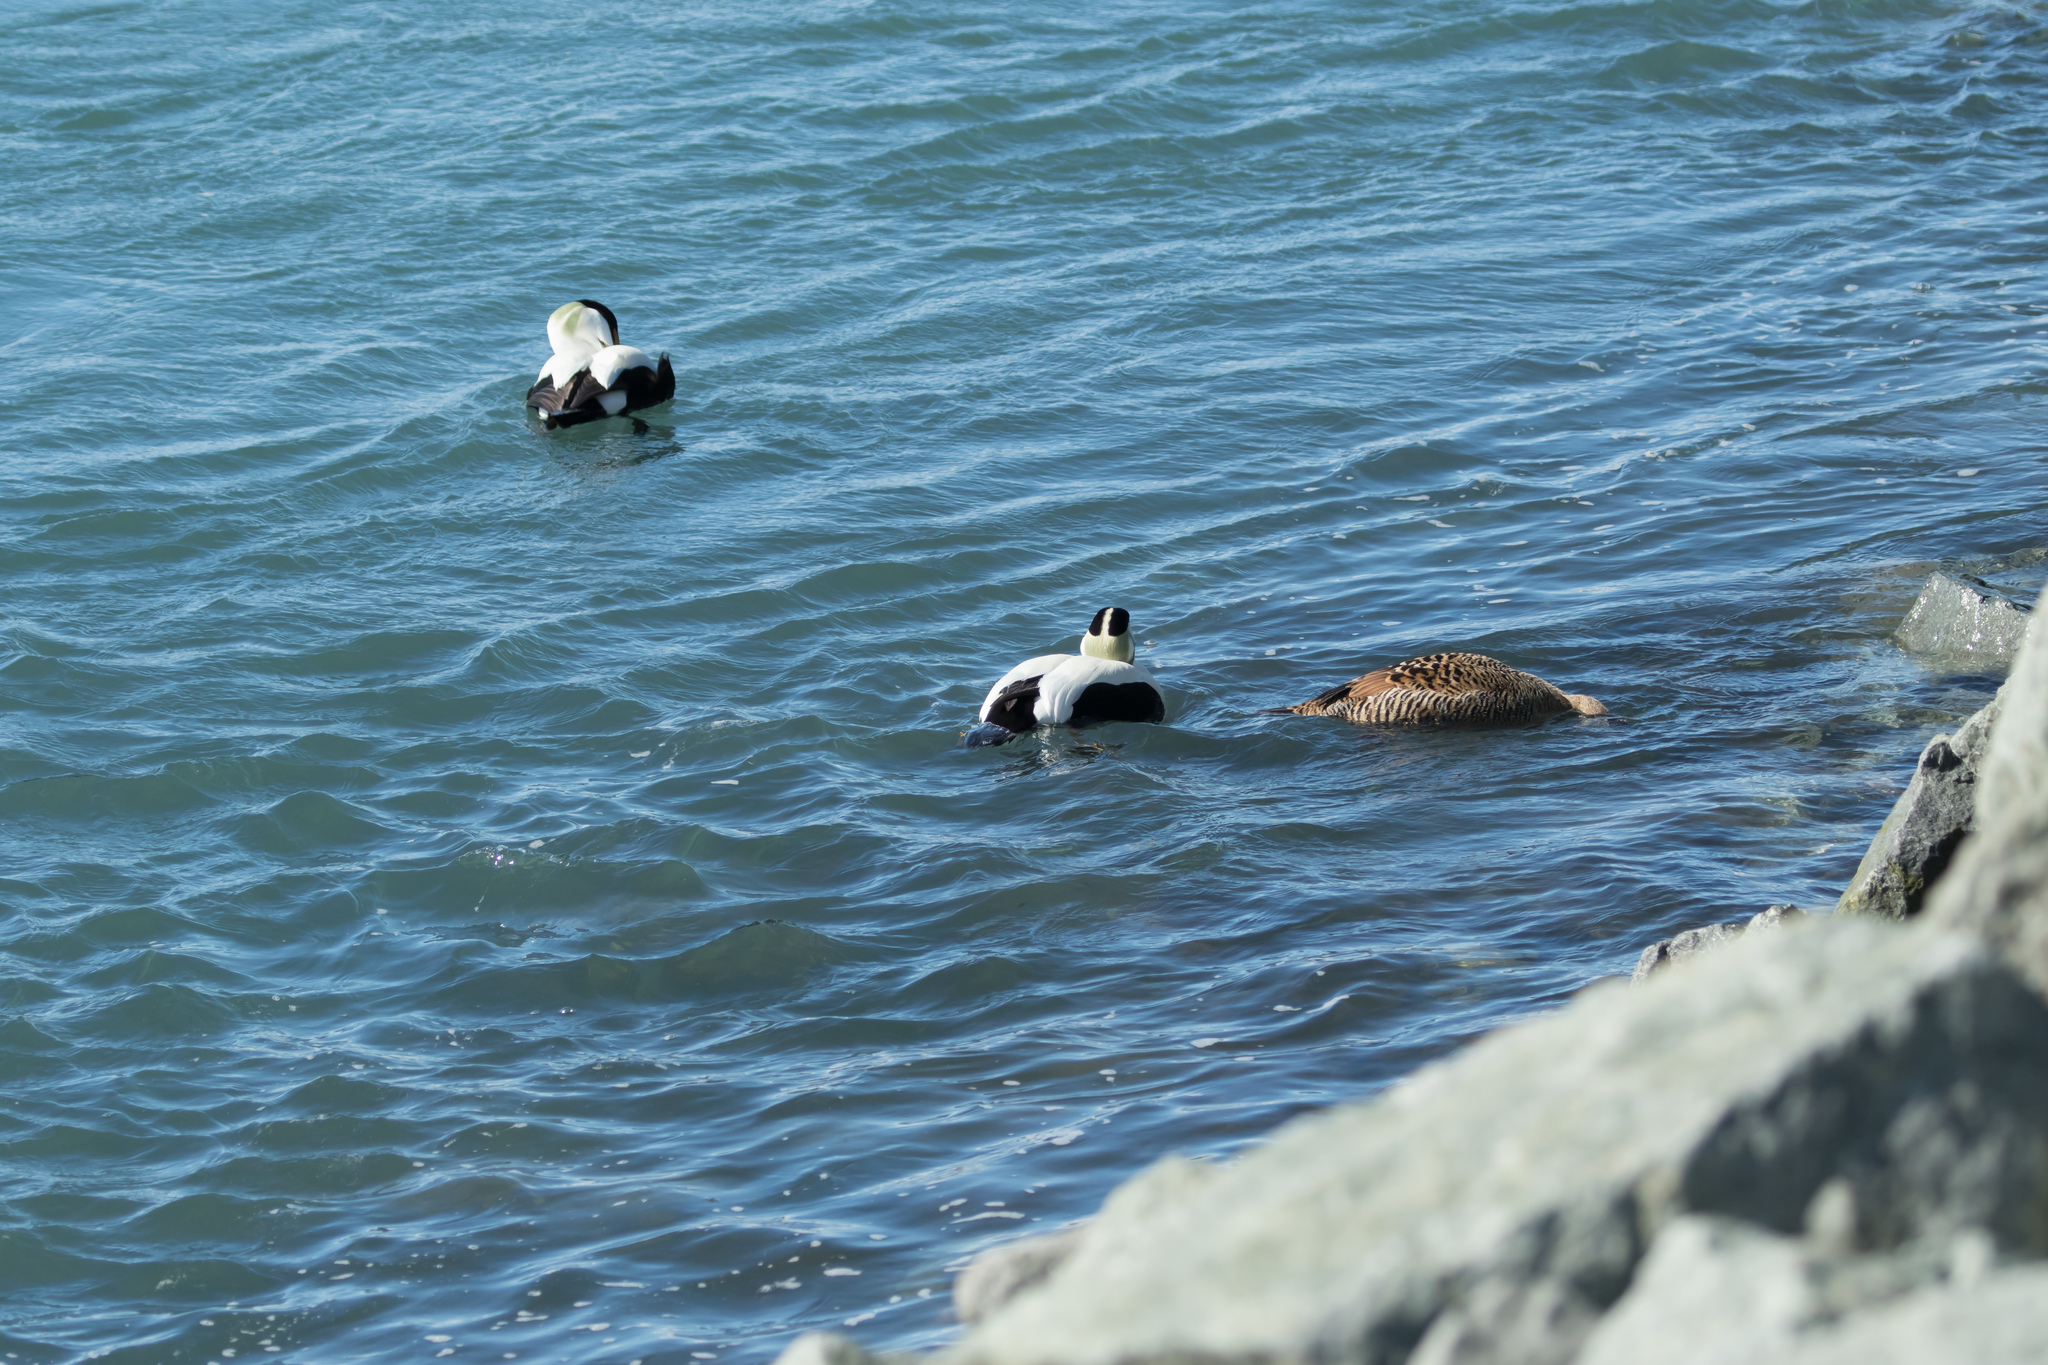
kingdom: Animalia
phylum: Chordata
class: Aves
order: Anseriformes
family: Anatidae
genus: Somateria
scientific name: Somateria mollissima
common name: Common eider
